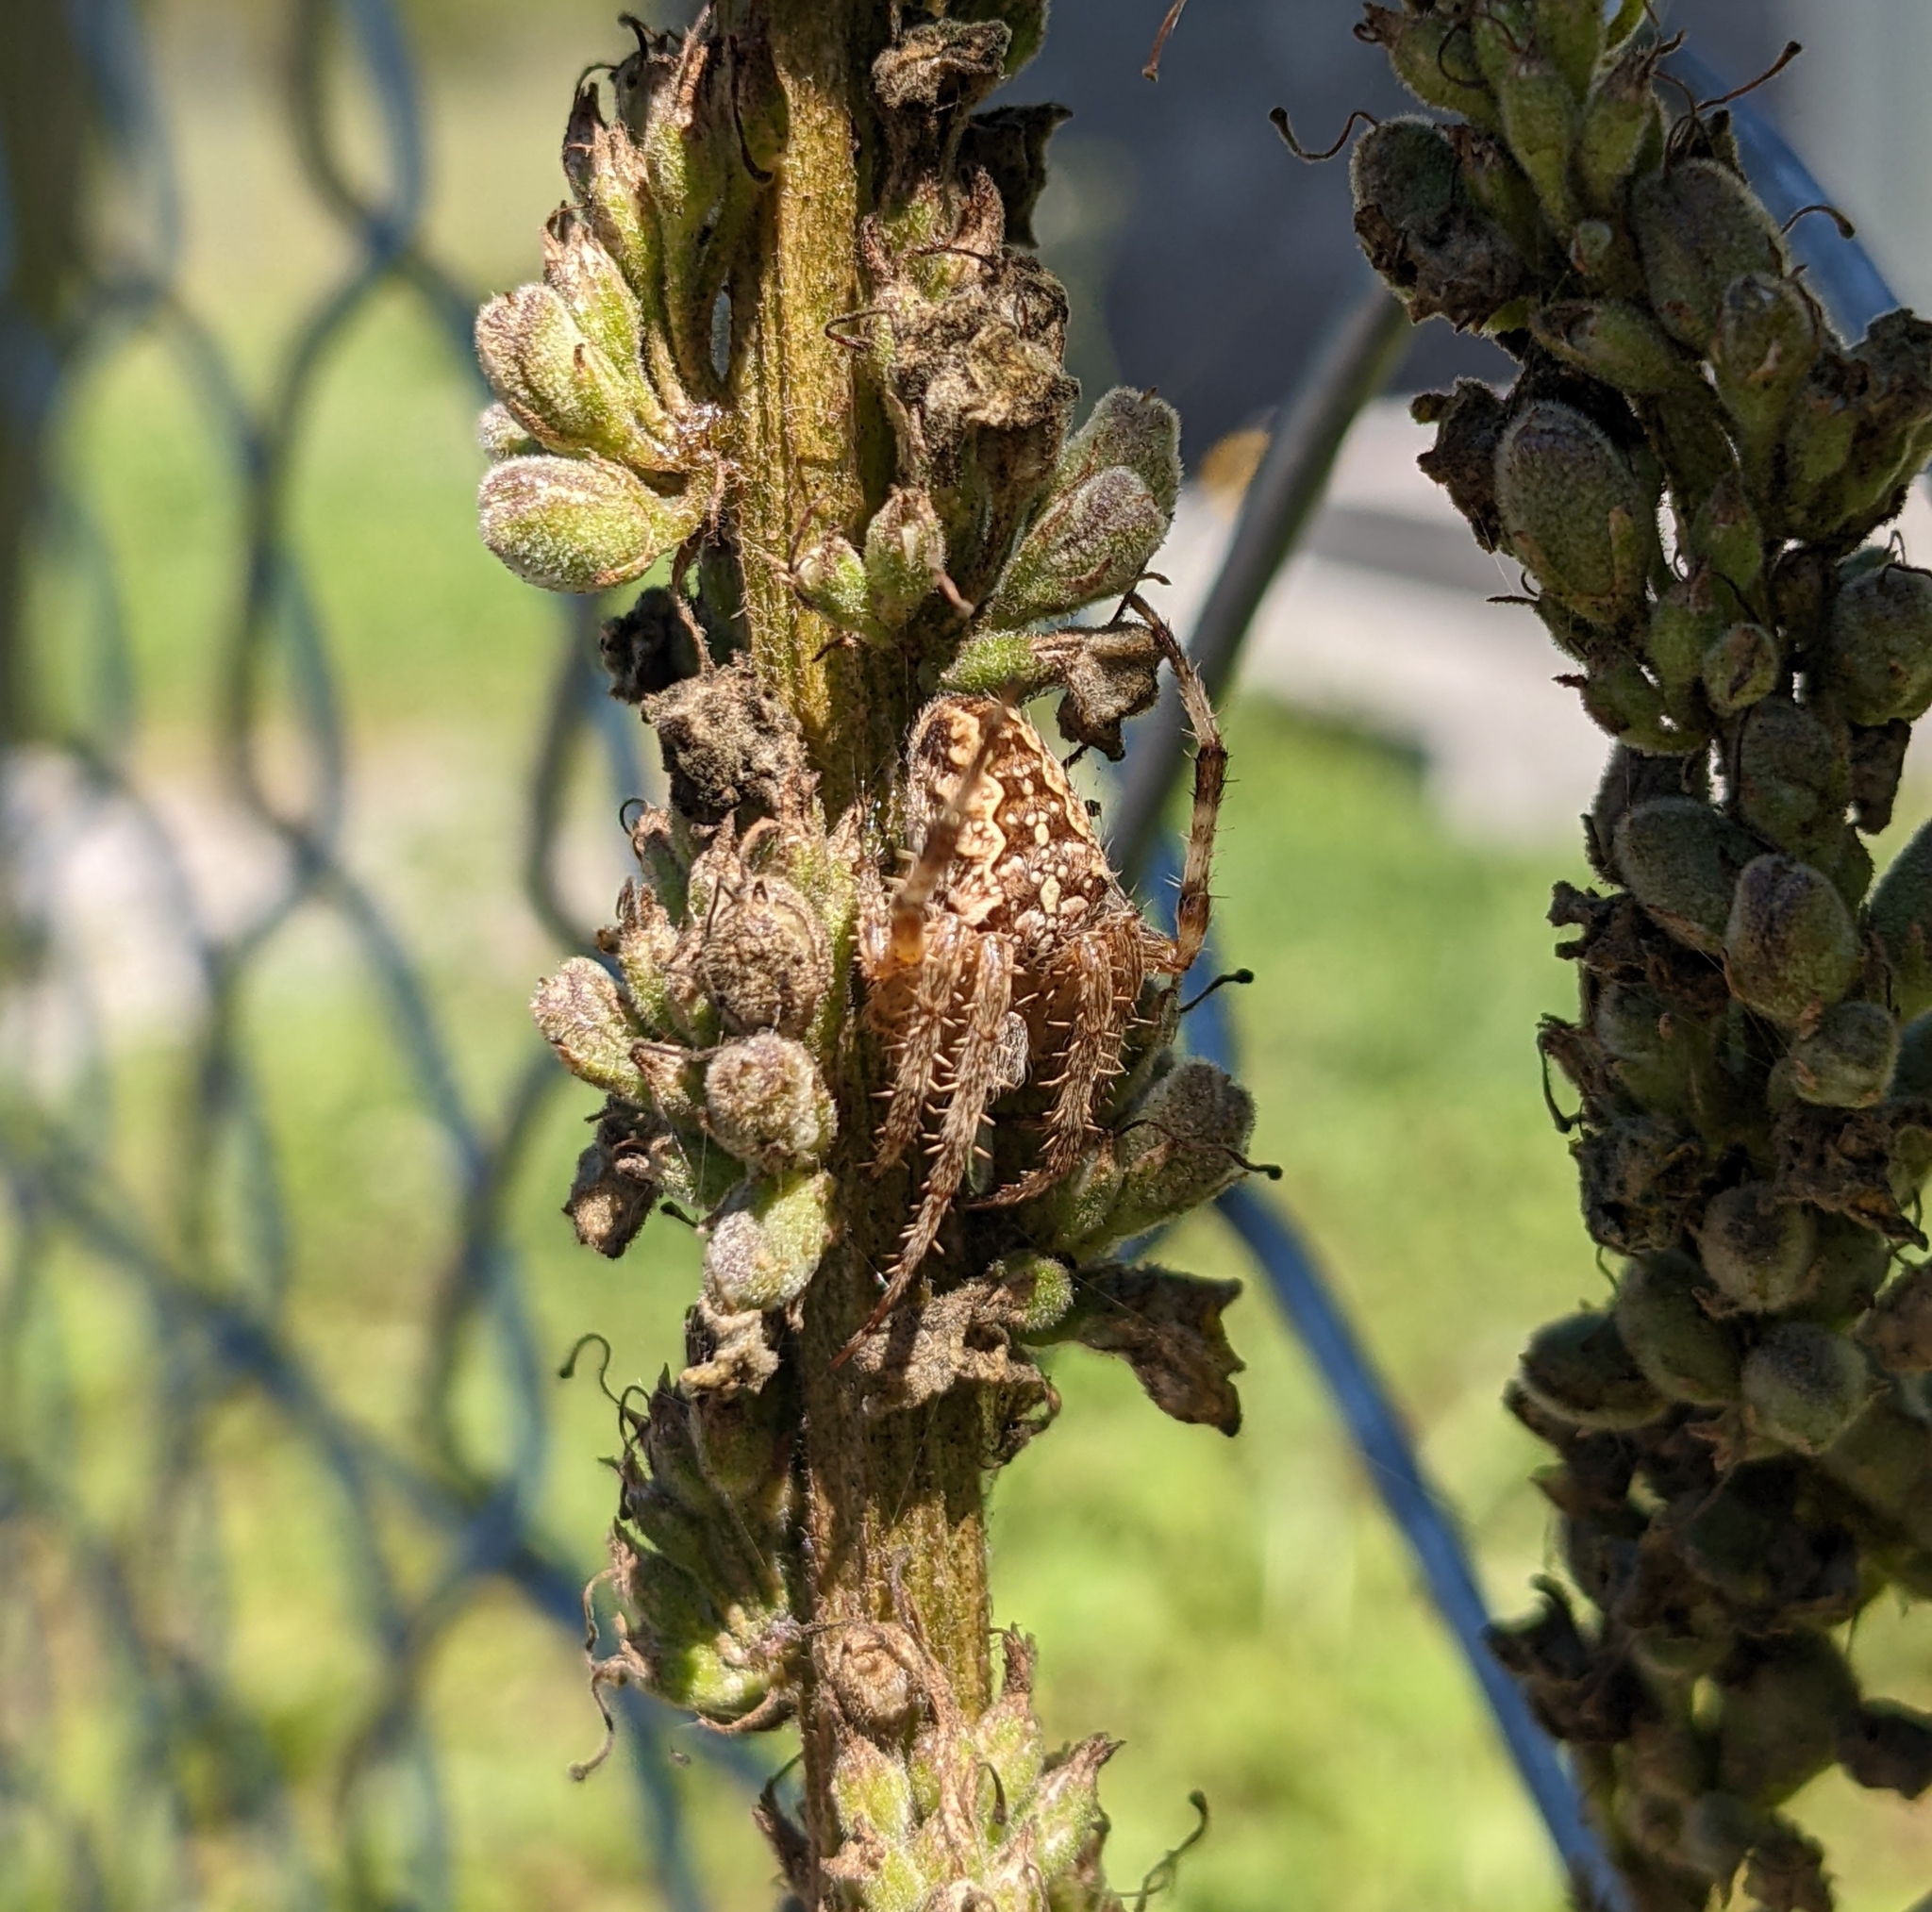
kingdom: Animalia
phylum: Arthropoda
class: Arachnida
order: Araneae
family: Araneidae
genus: Araneus
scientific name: Araneus diadematus
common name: Cross orbweaver
